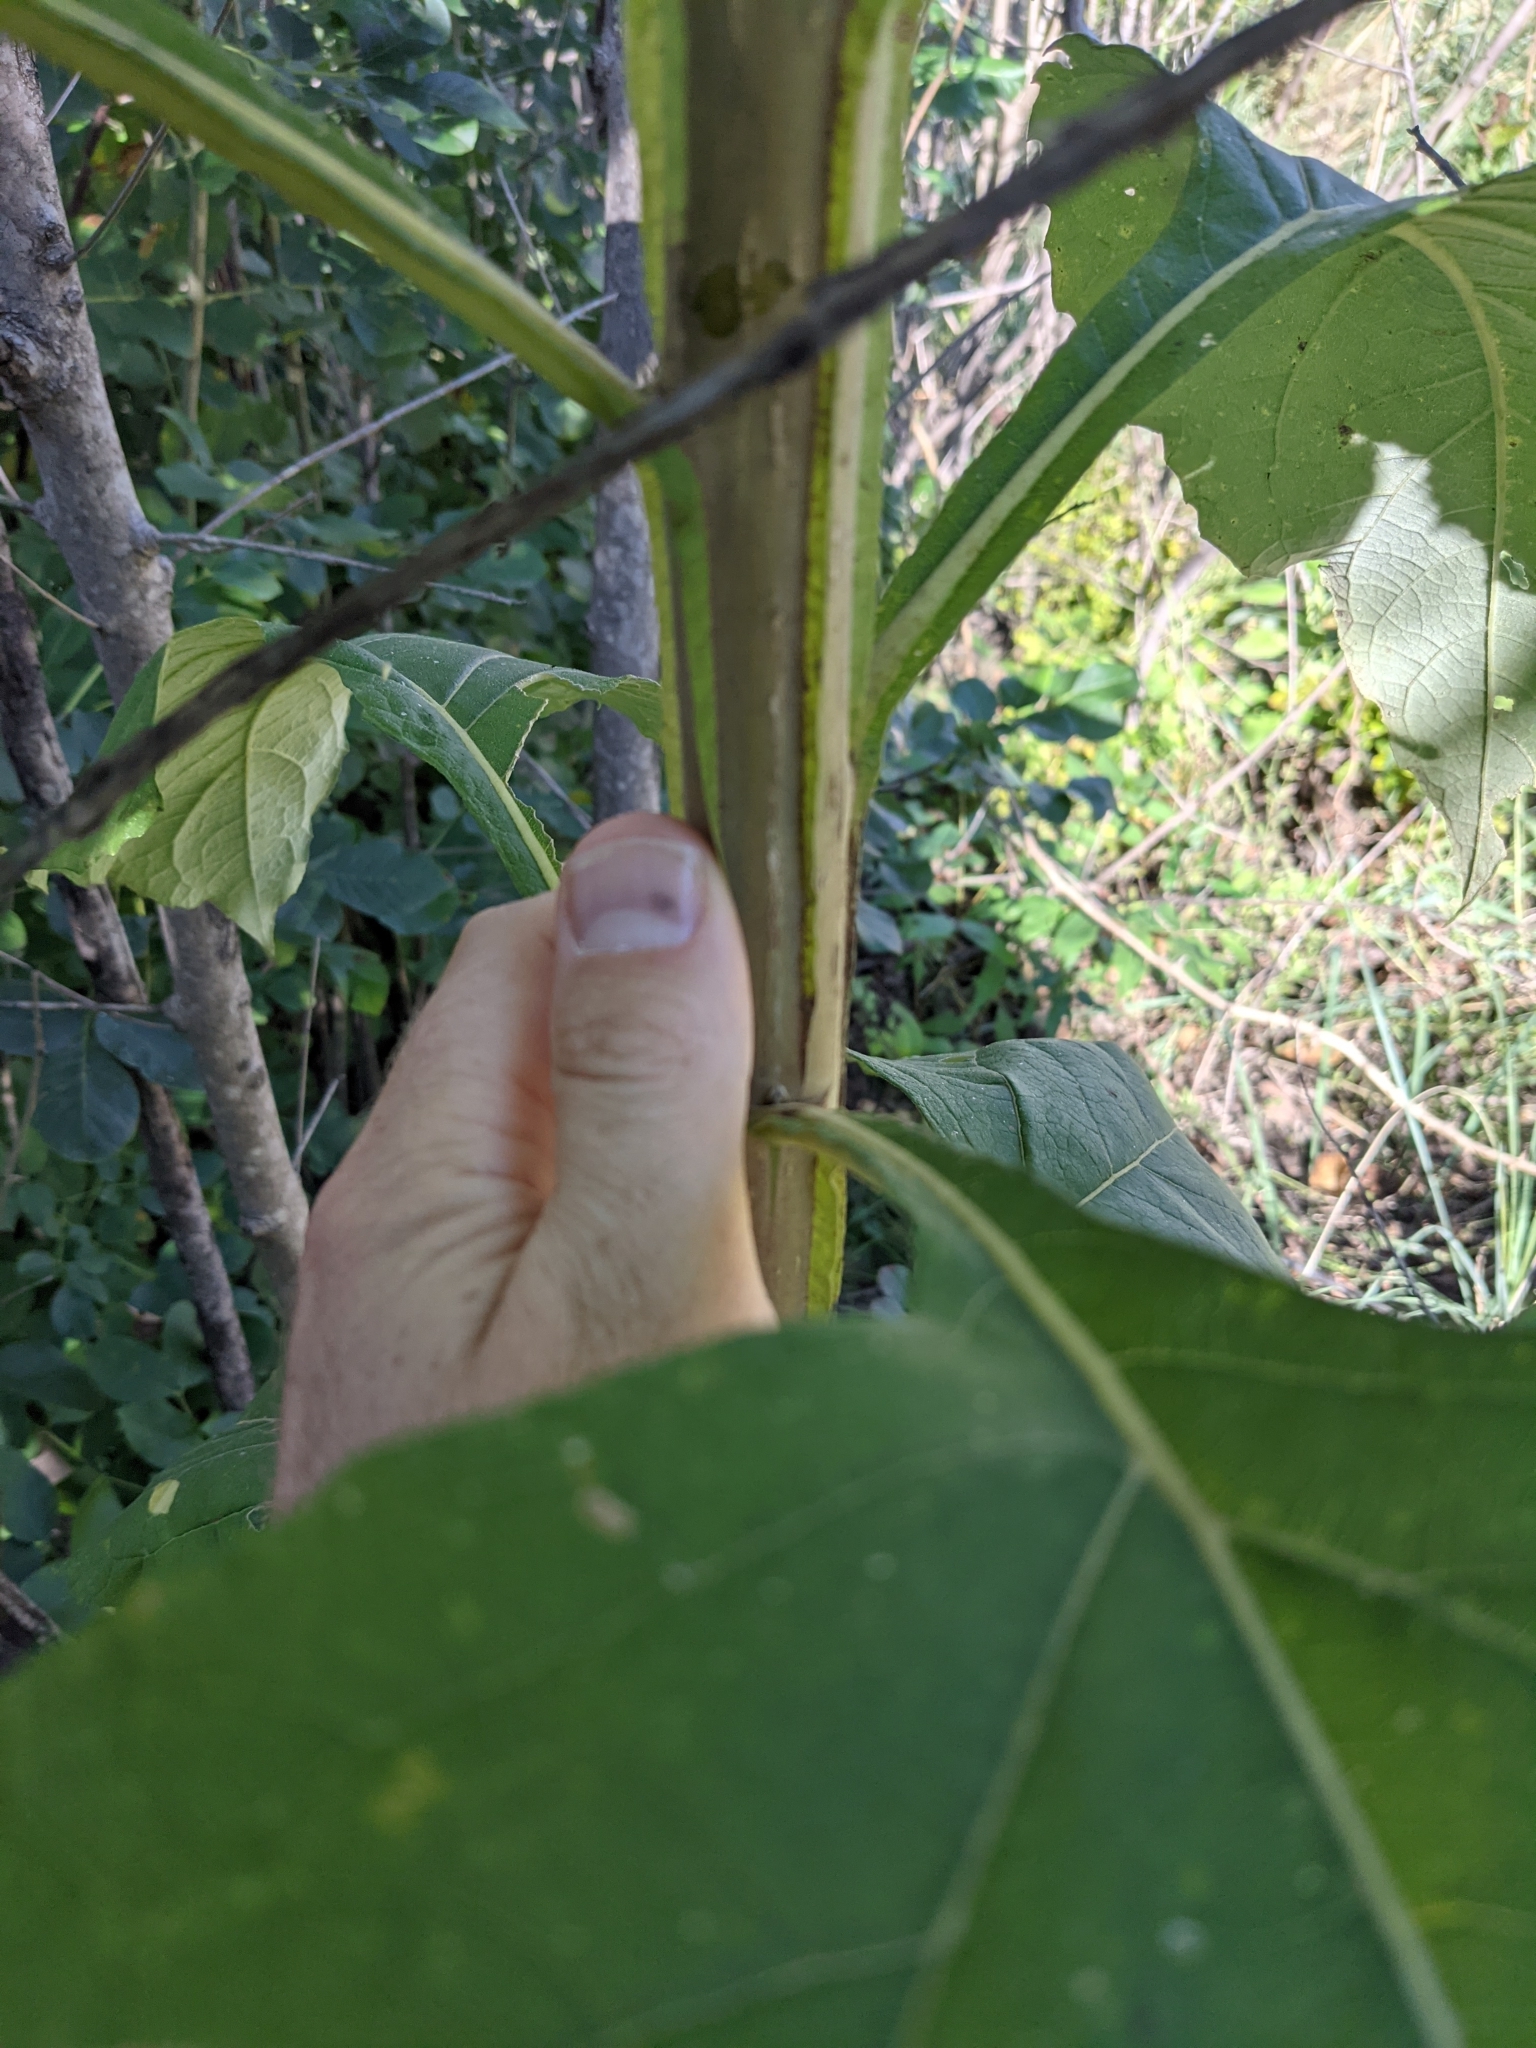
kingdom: Plantae
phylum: Tracheophyta
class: Magnoliopsida
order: Asterales
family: Asteraceae
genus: Verbesina
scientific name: Verbesina virginica
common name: Frostweed
